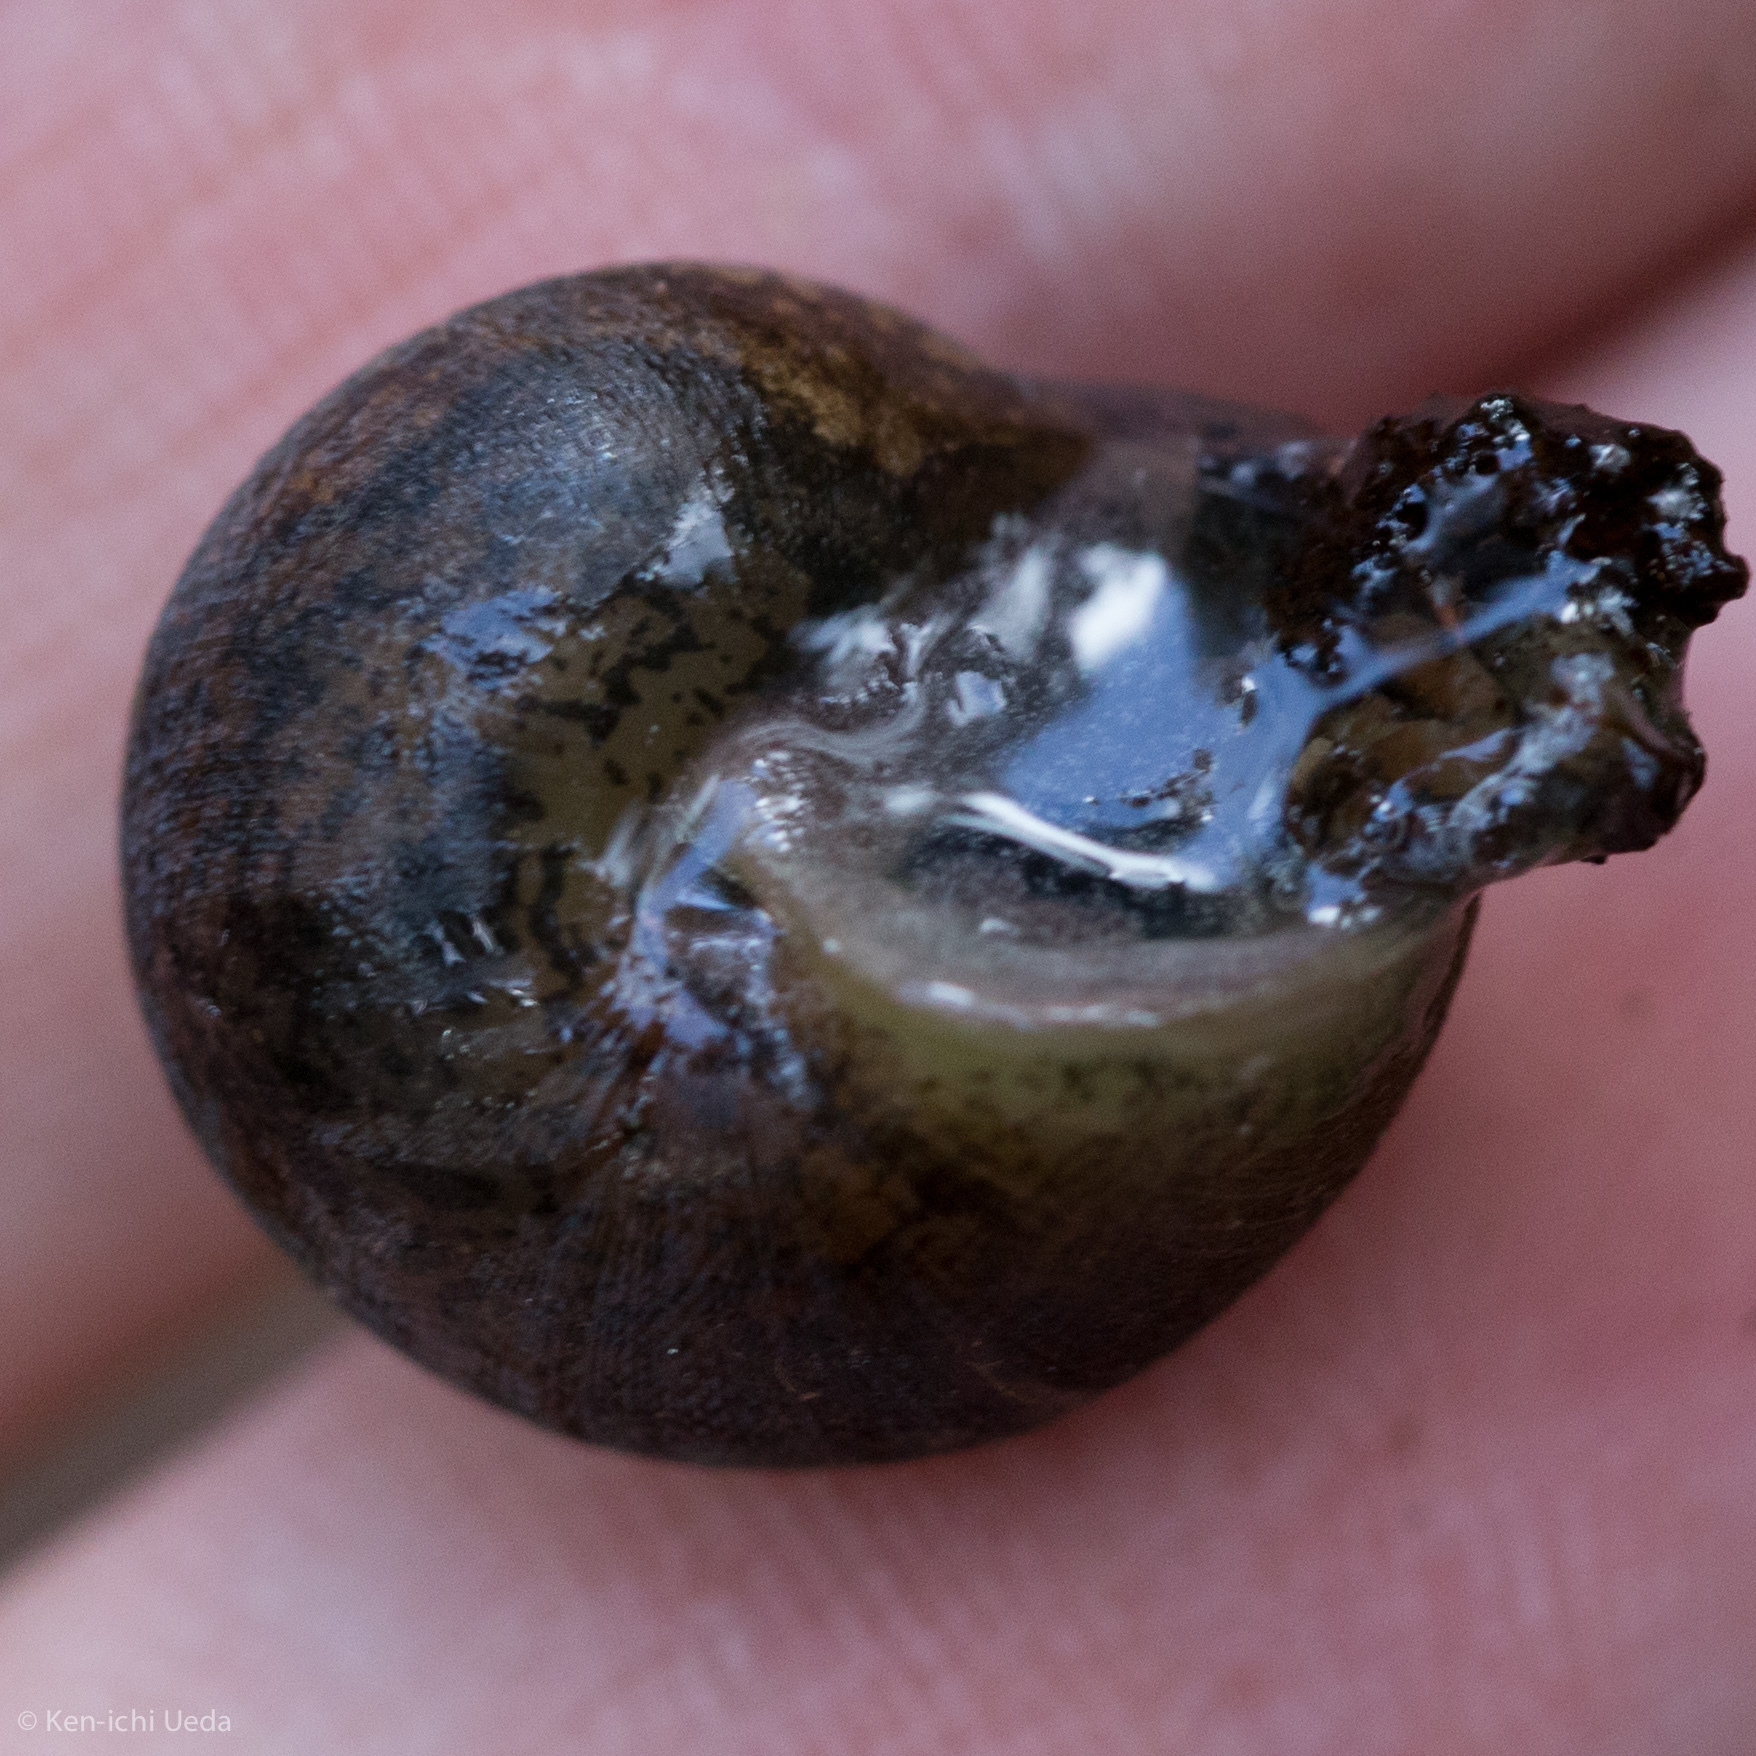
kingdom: Animalia
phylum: Mollusca
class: Gastropoda
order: Stylommatophora
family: Xanthonychidae
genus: Helminthoglypta
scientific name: Helminthoglypta nickliniana
